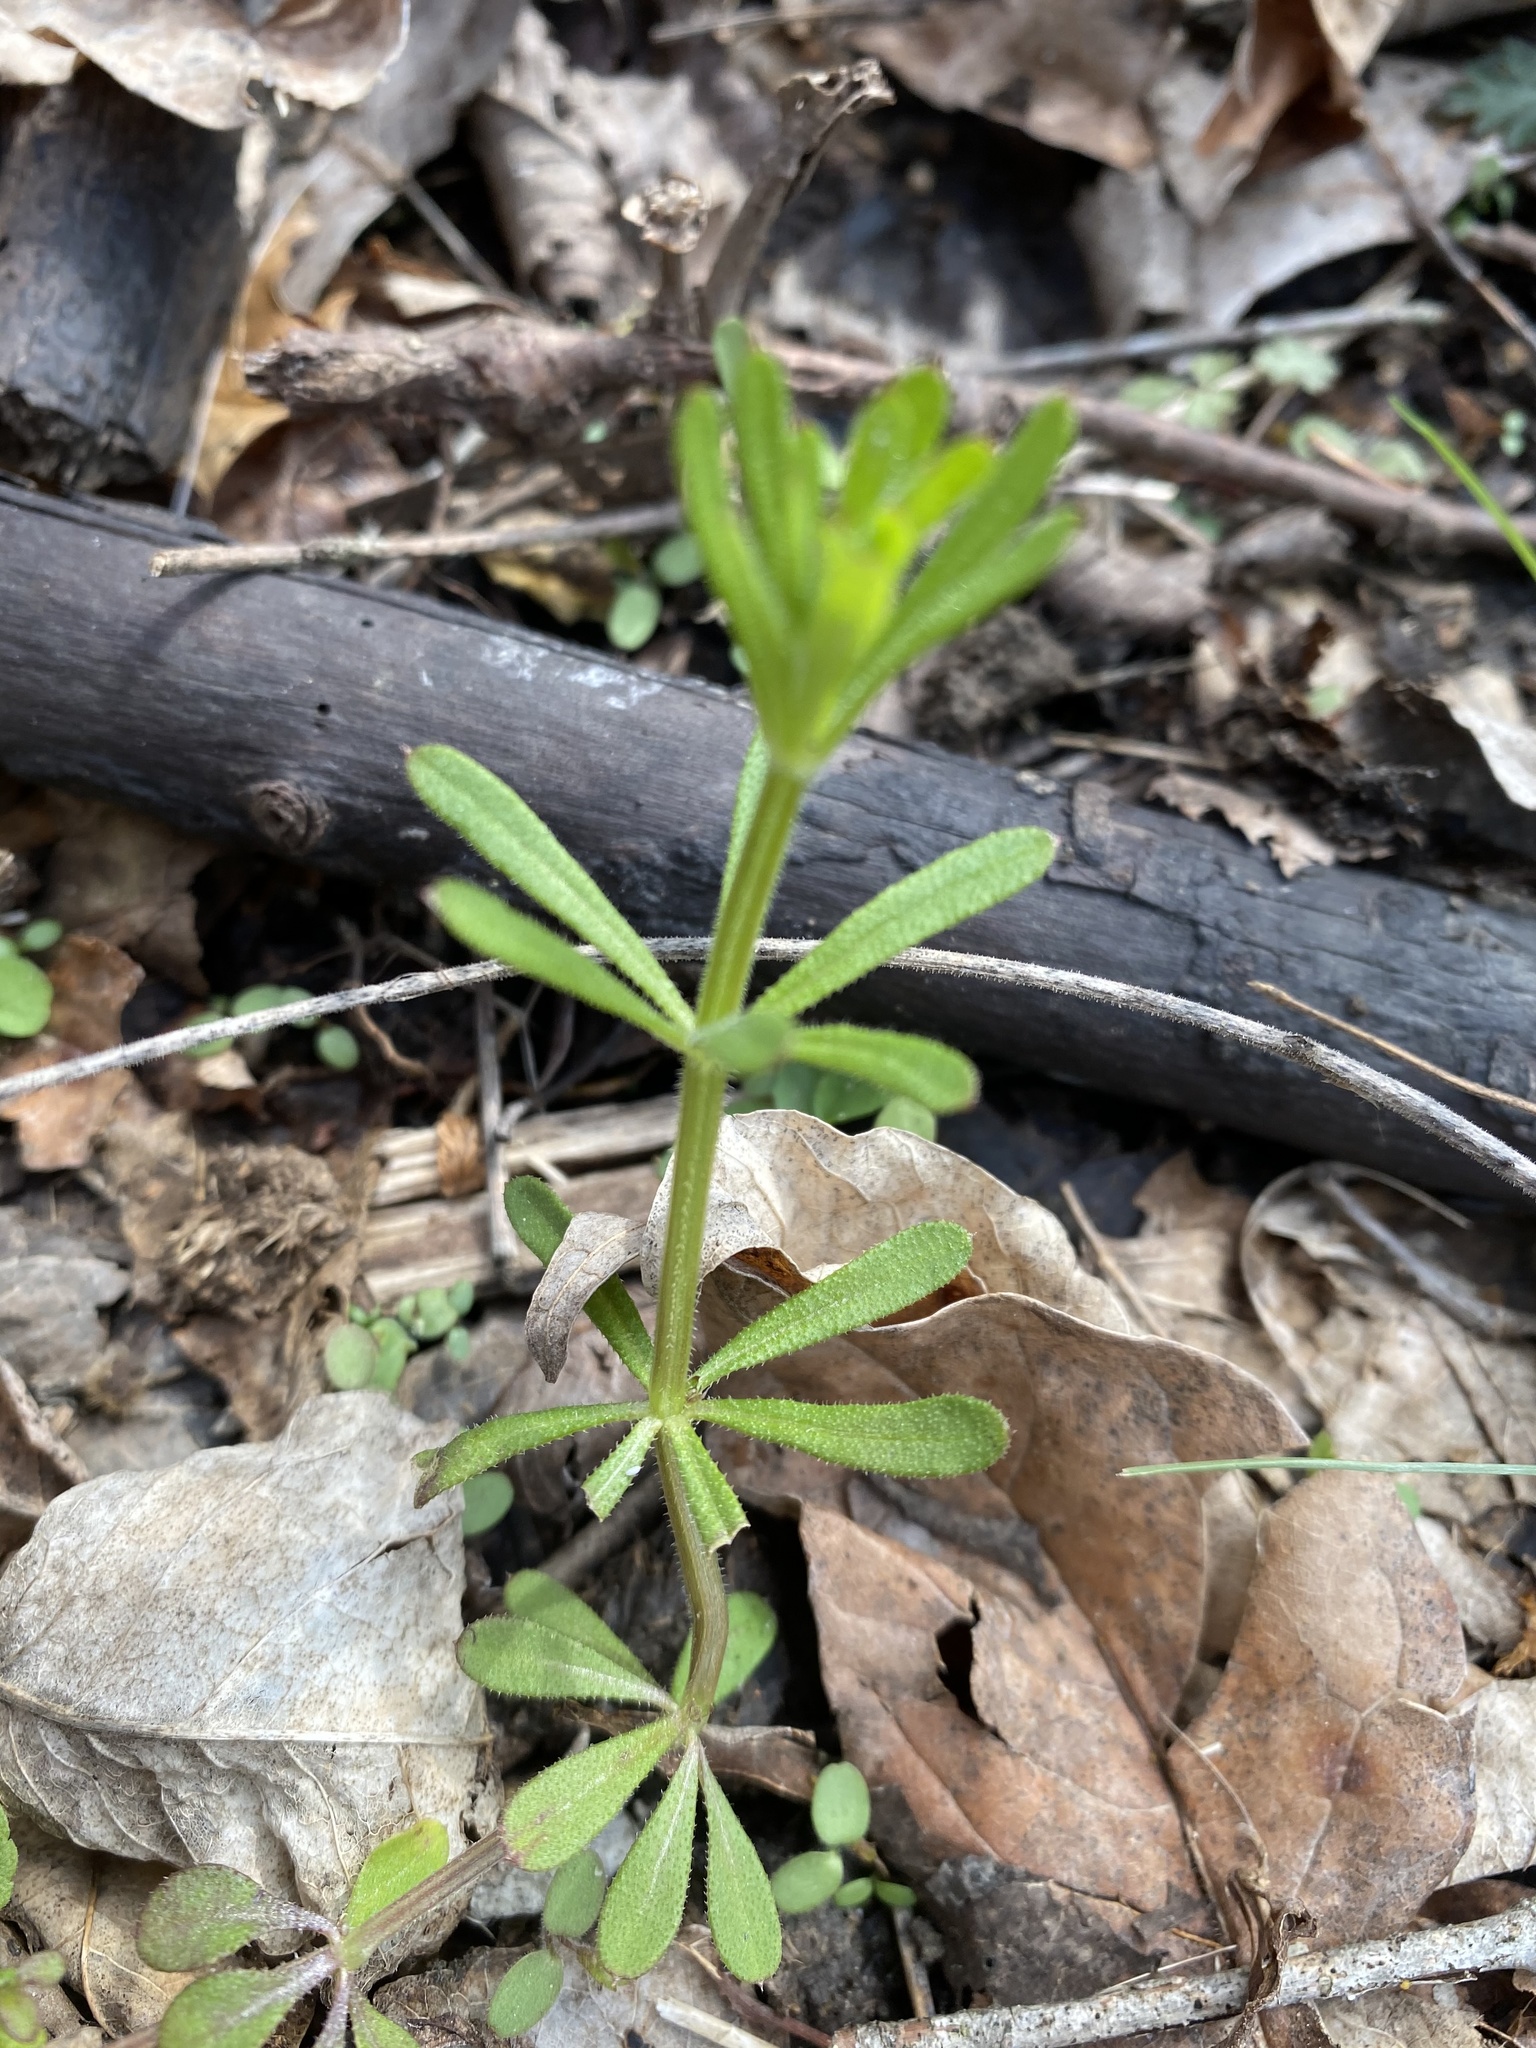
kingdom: Plantae
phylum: Tracheophyta
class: Magnoliopsida
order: Gentianales
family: Rubiaceae
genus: Galium
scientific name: Galium aparine
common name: Cleavers
